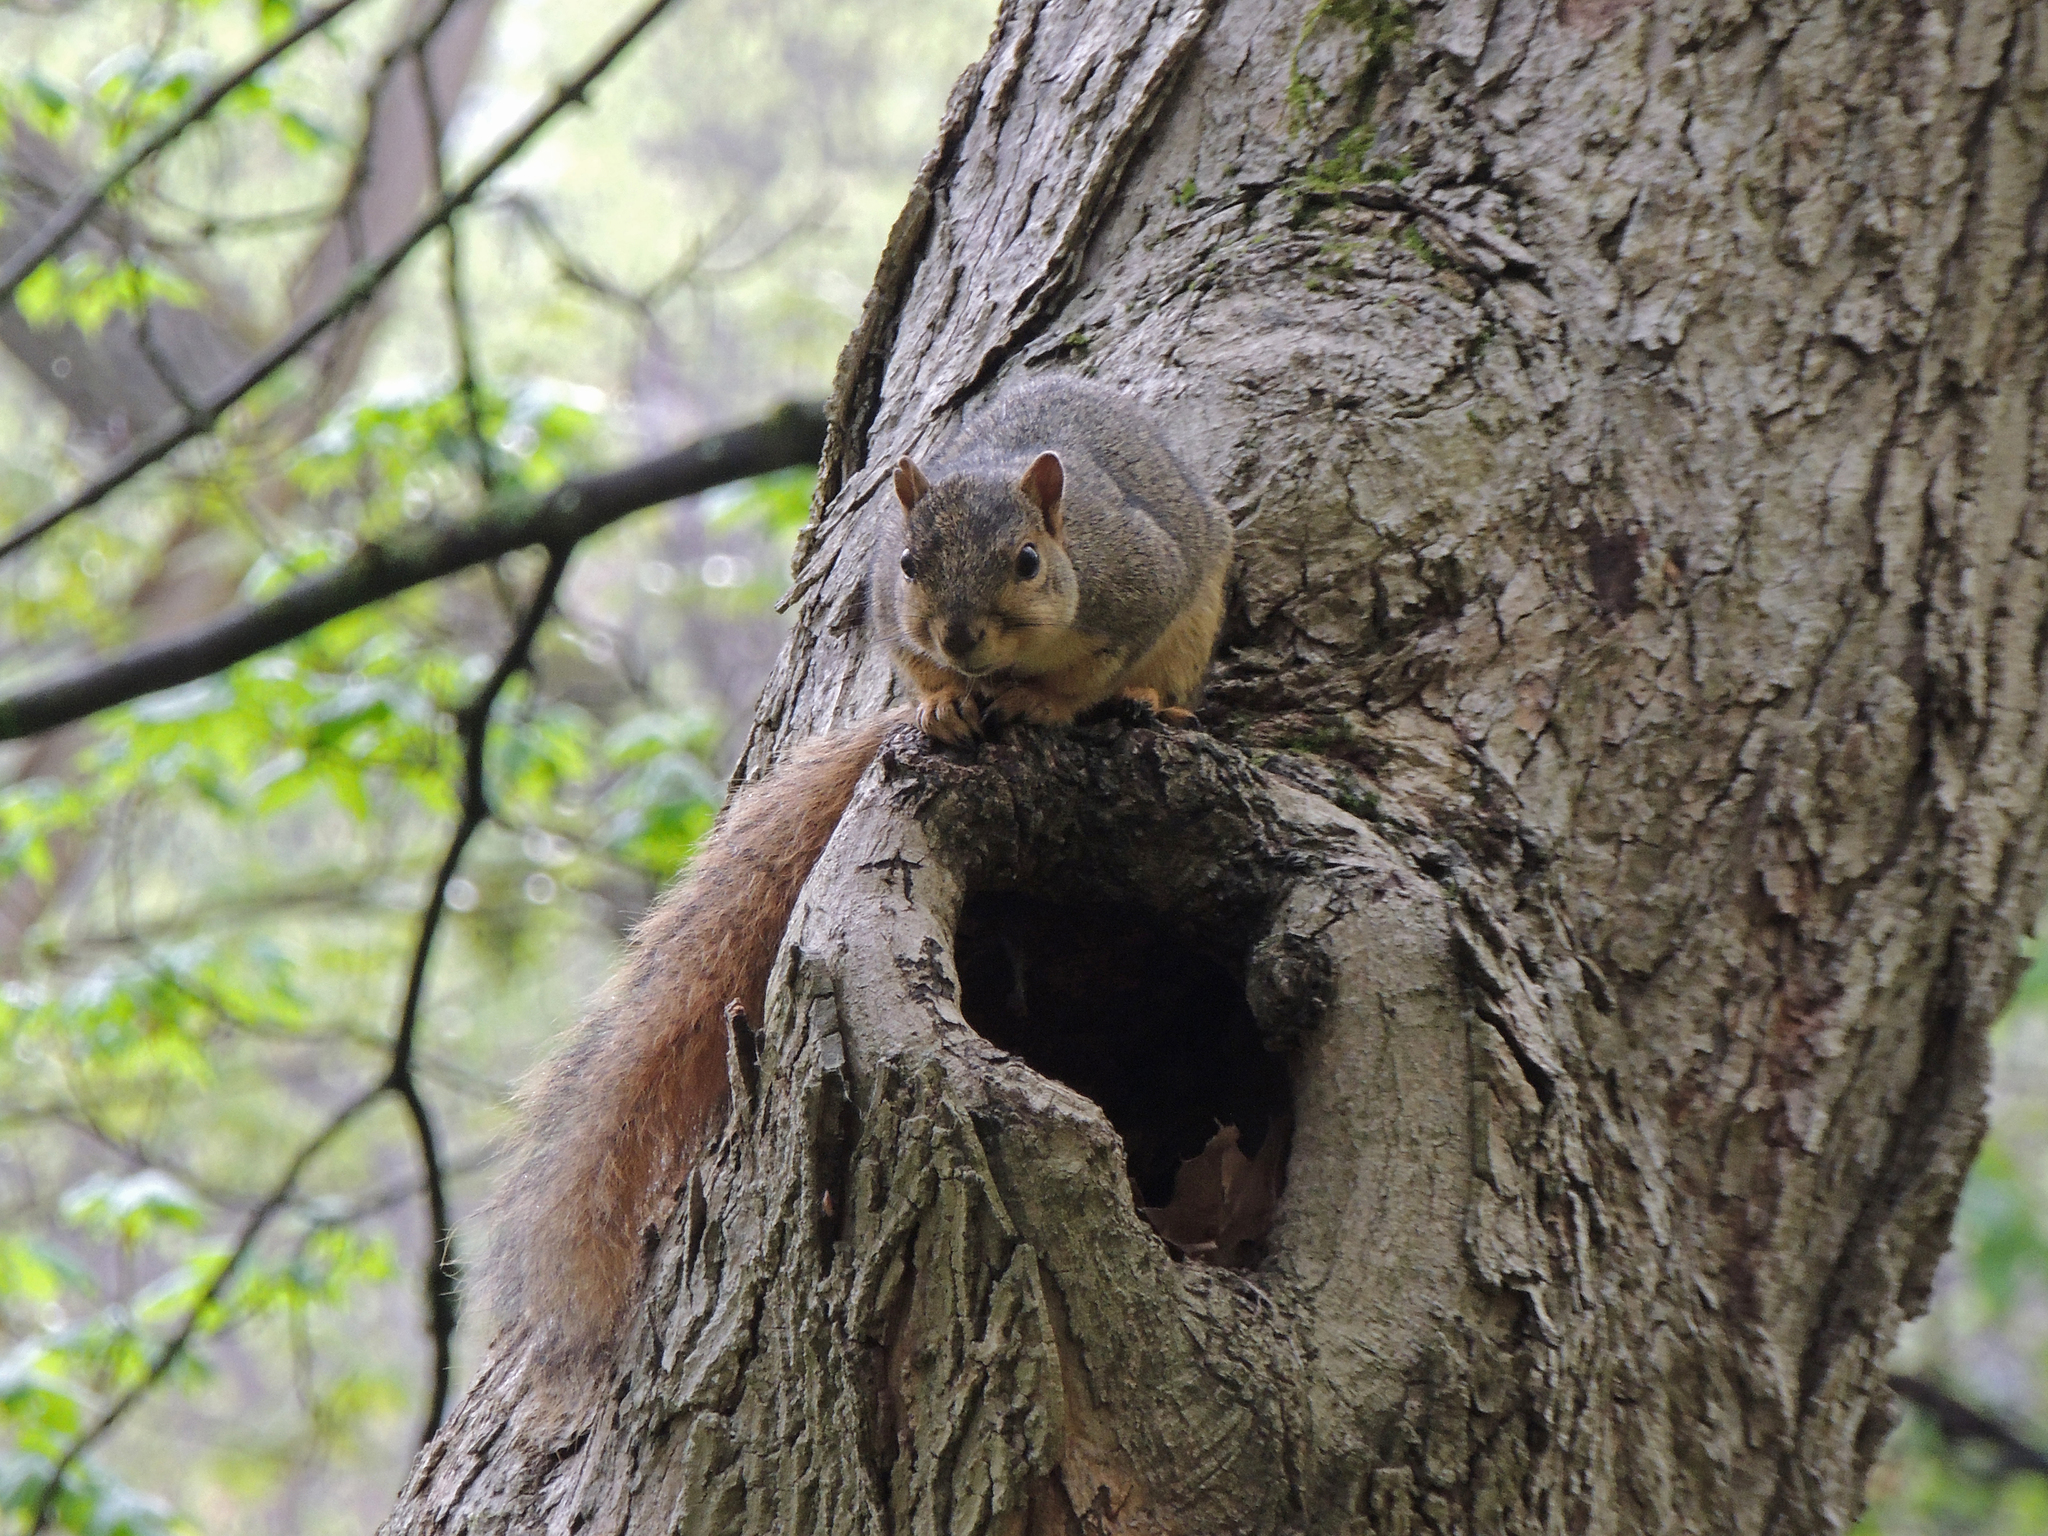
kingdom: Animalia
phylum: Chordata
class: Mammalia
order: Rodentia
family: Sciuridae
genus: Sciurus
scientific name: Sciurus niger
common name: Fox squirrel
